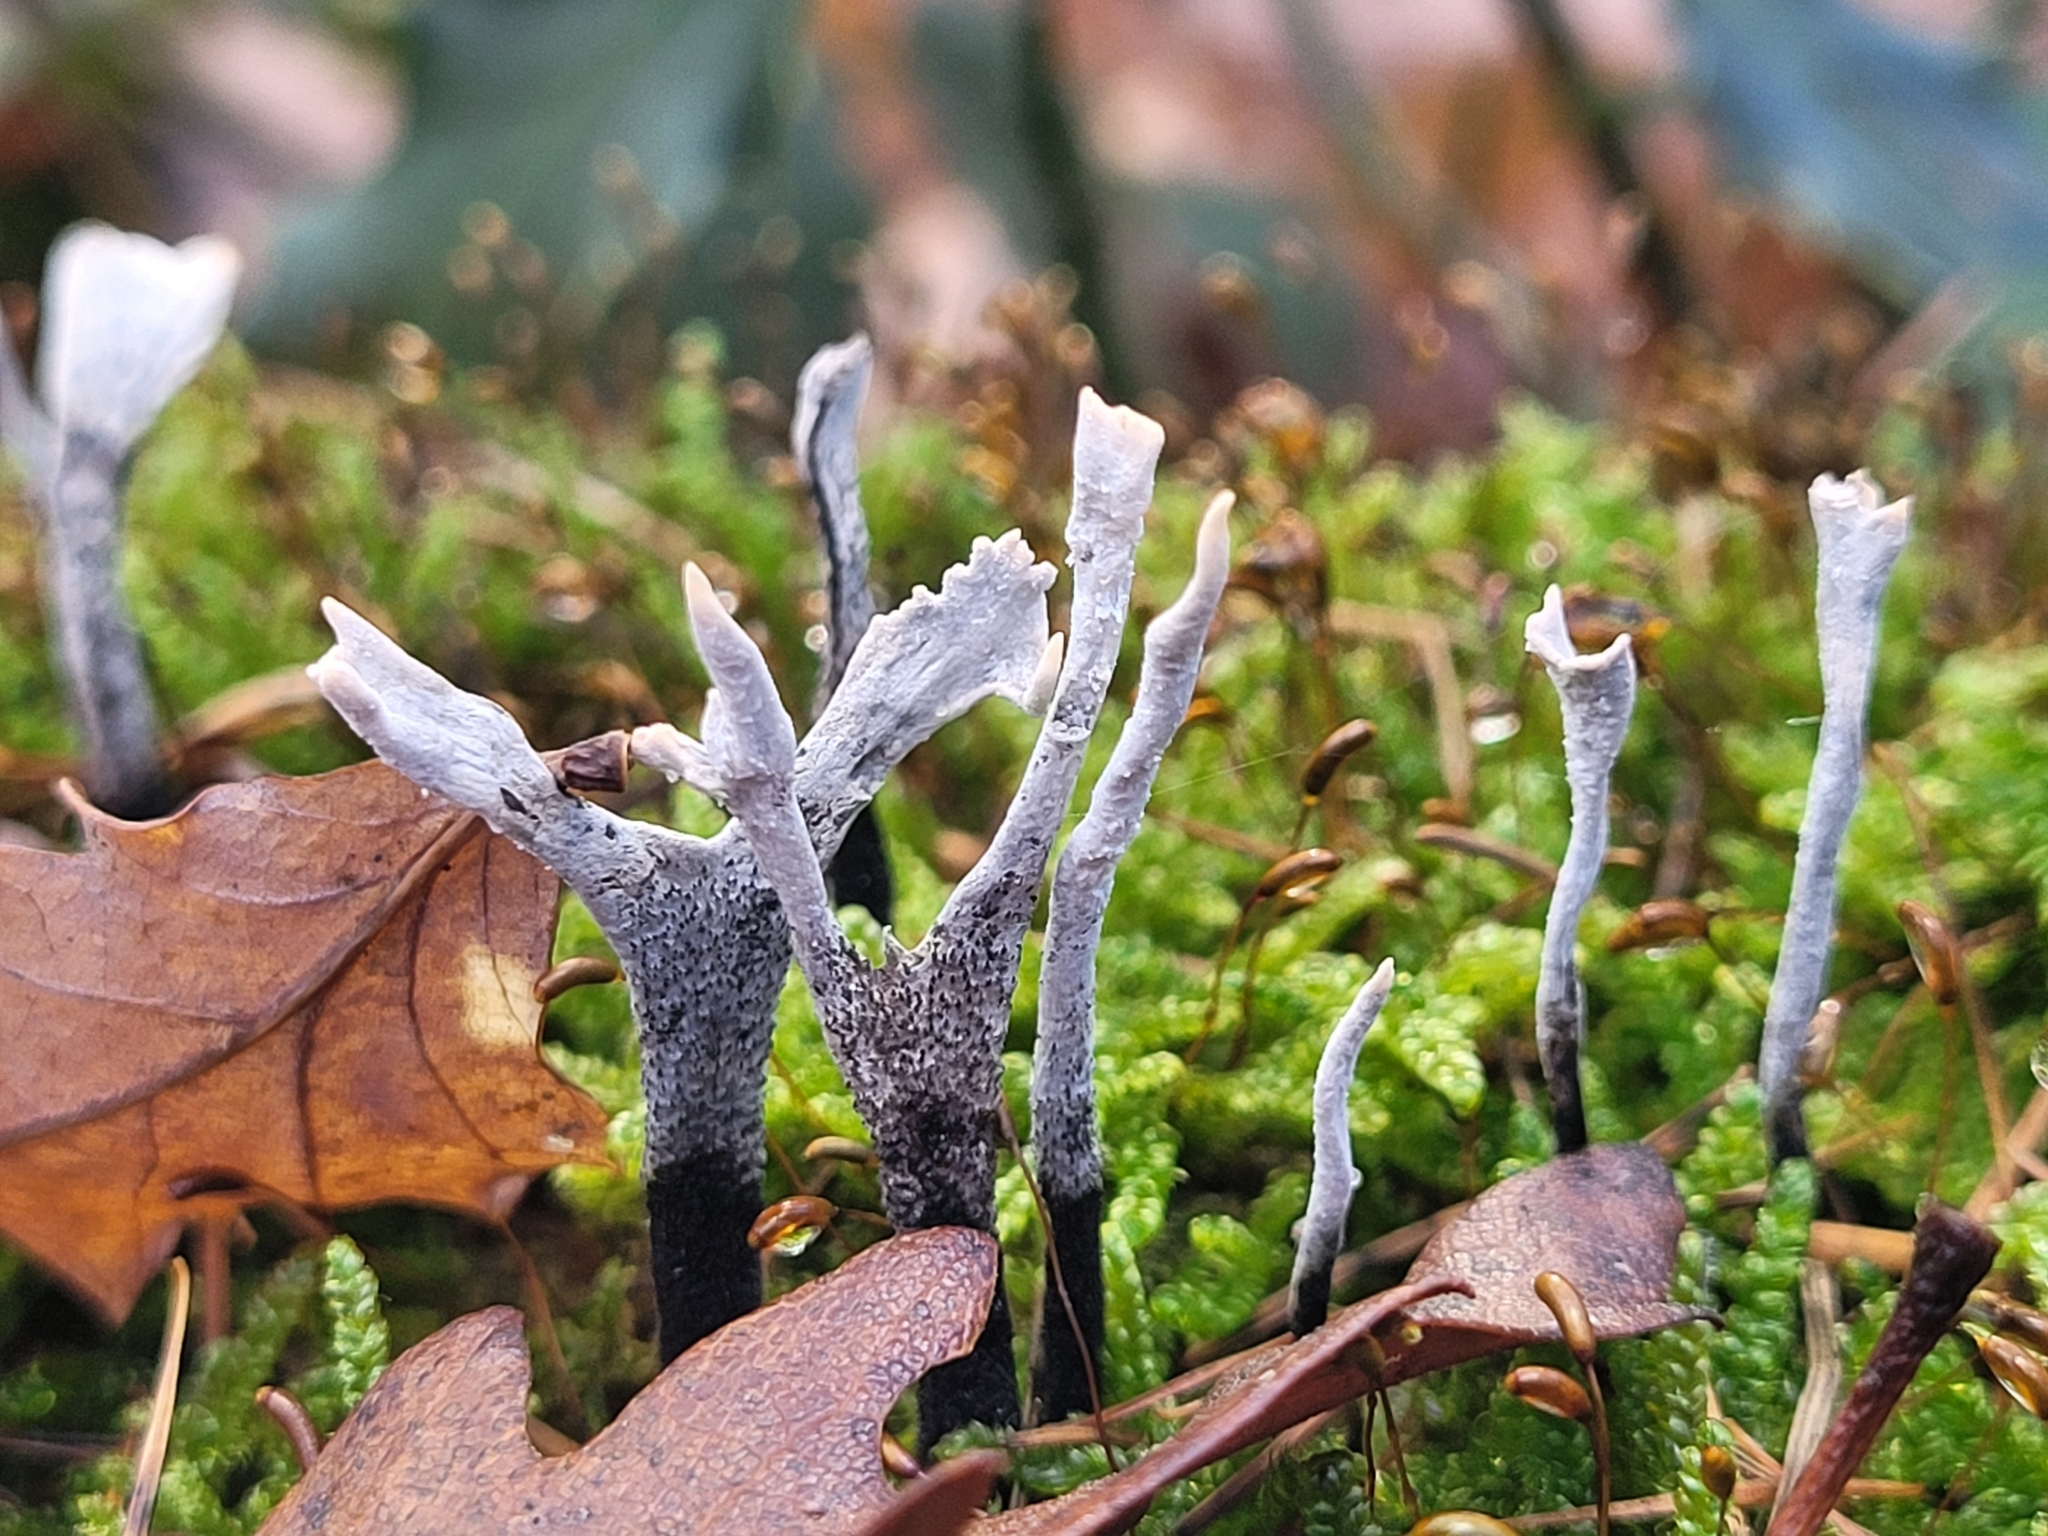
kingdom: Fungi
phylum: Ascomycota
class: Sordariomycetes
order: Xylariales
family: Xylariaceae
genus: Xylaria
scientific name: Xylaria hypoxylon
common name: Candle-snuff fungus
